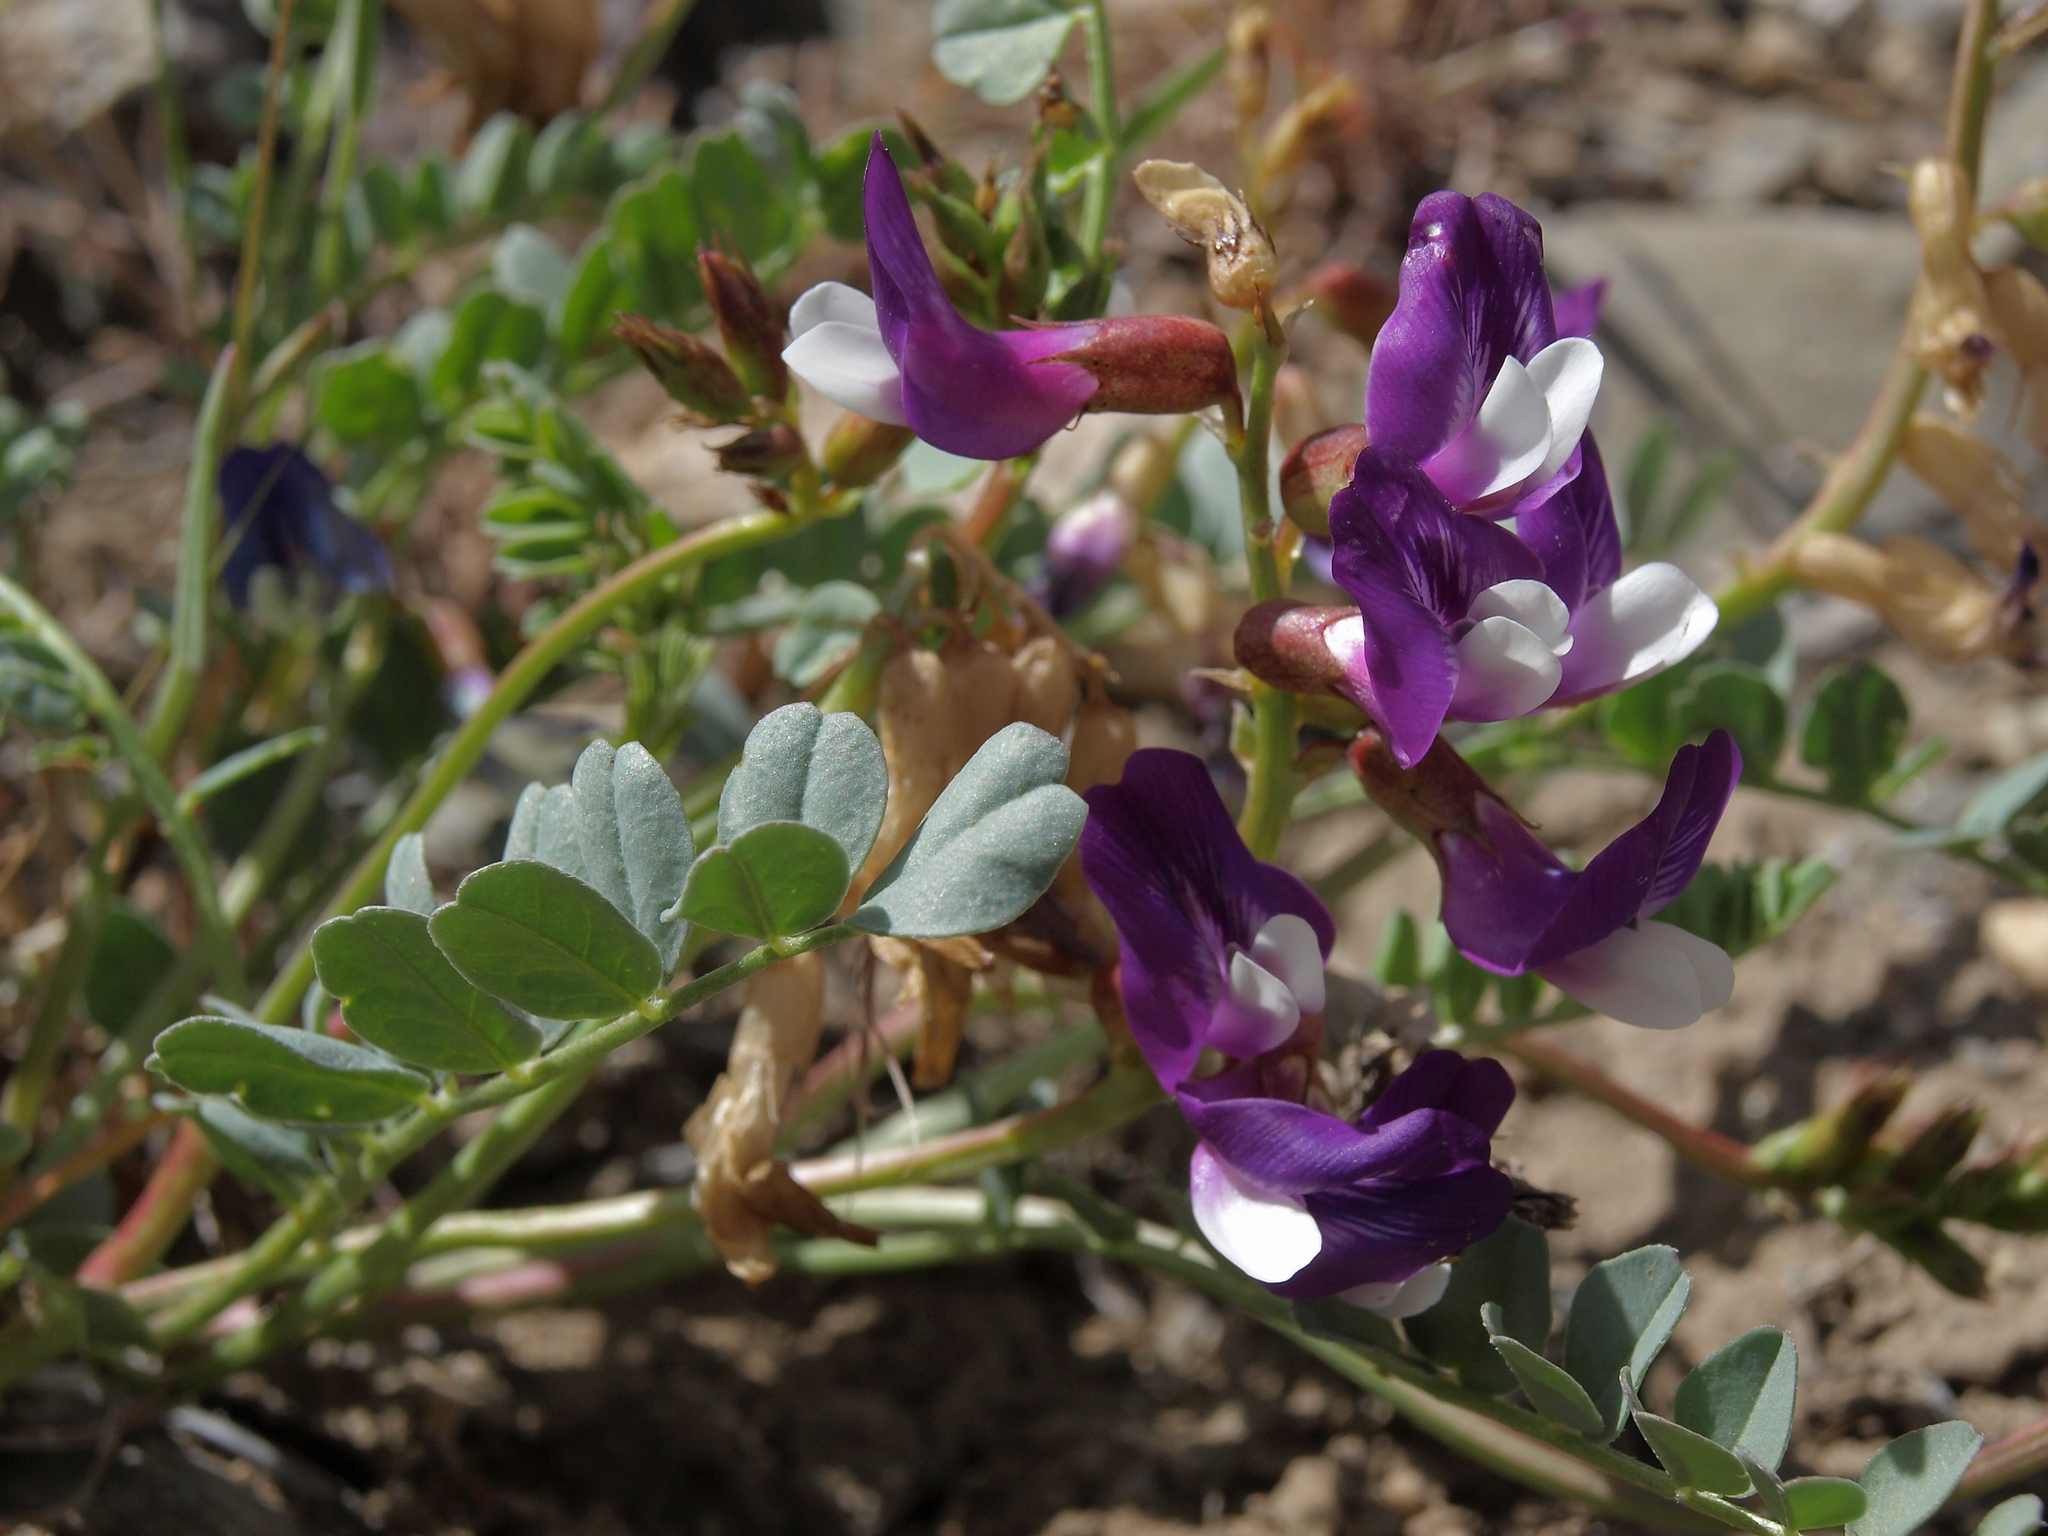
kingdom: Plantae
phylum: Tracheophyta
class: Magnoliopsida
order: Fabales
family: Fabaceae
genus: Astragalus
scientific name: Astragalus oophorus
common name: Egg milkvetch
